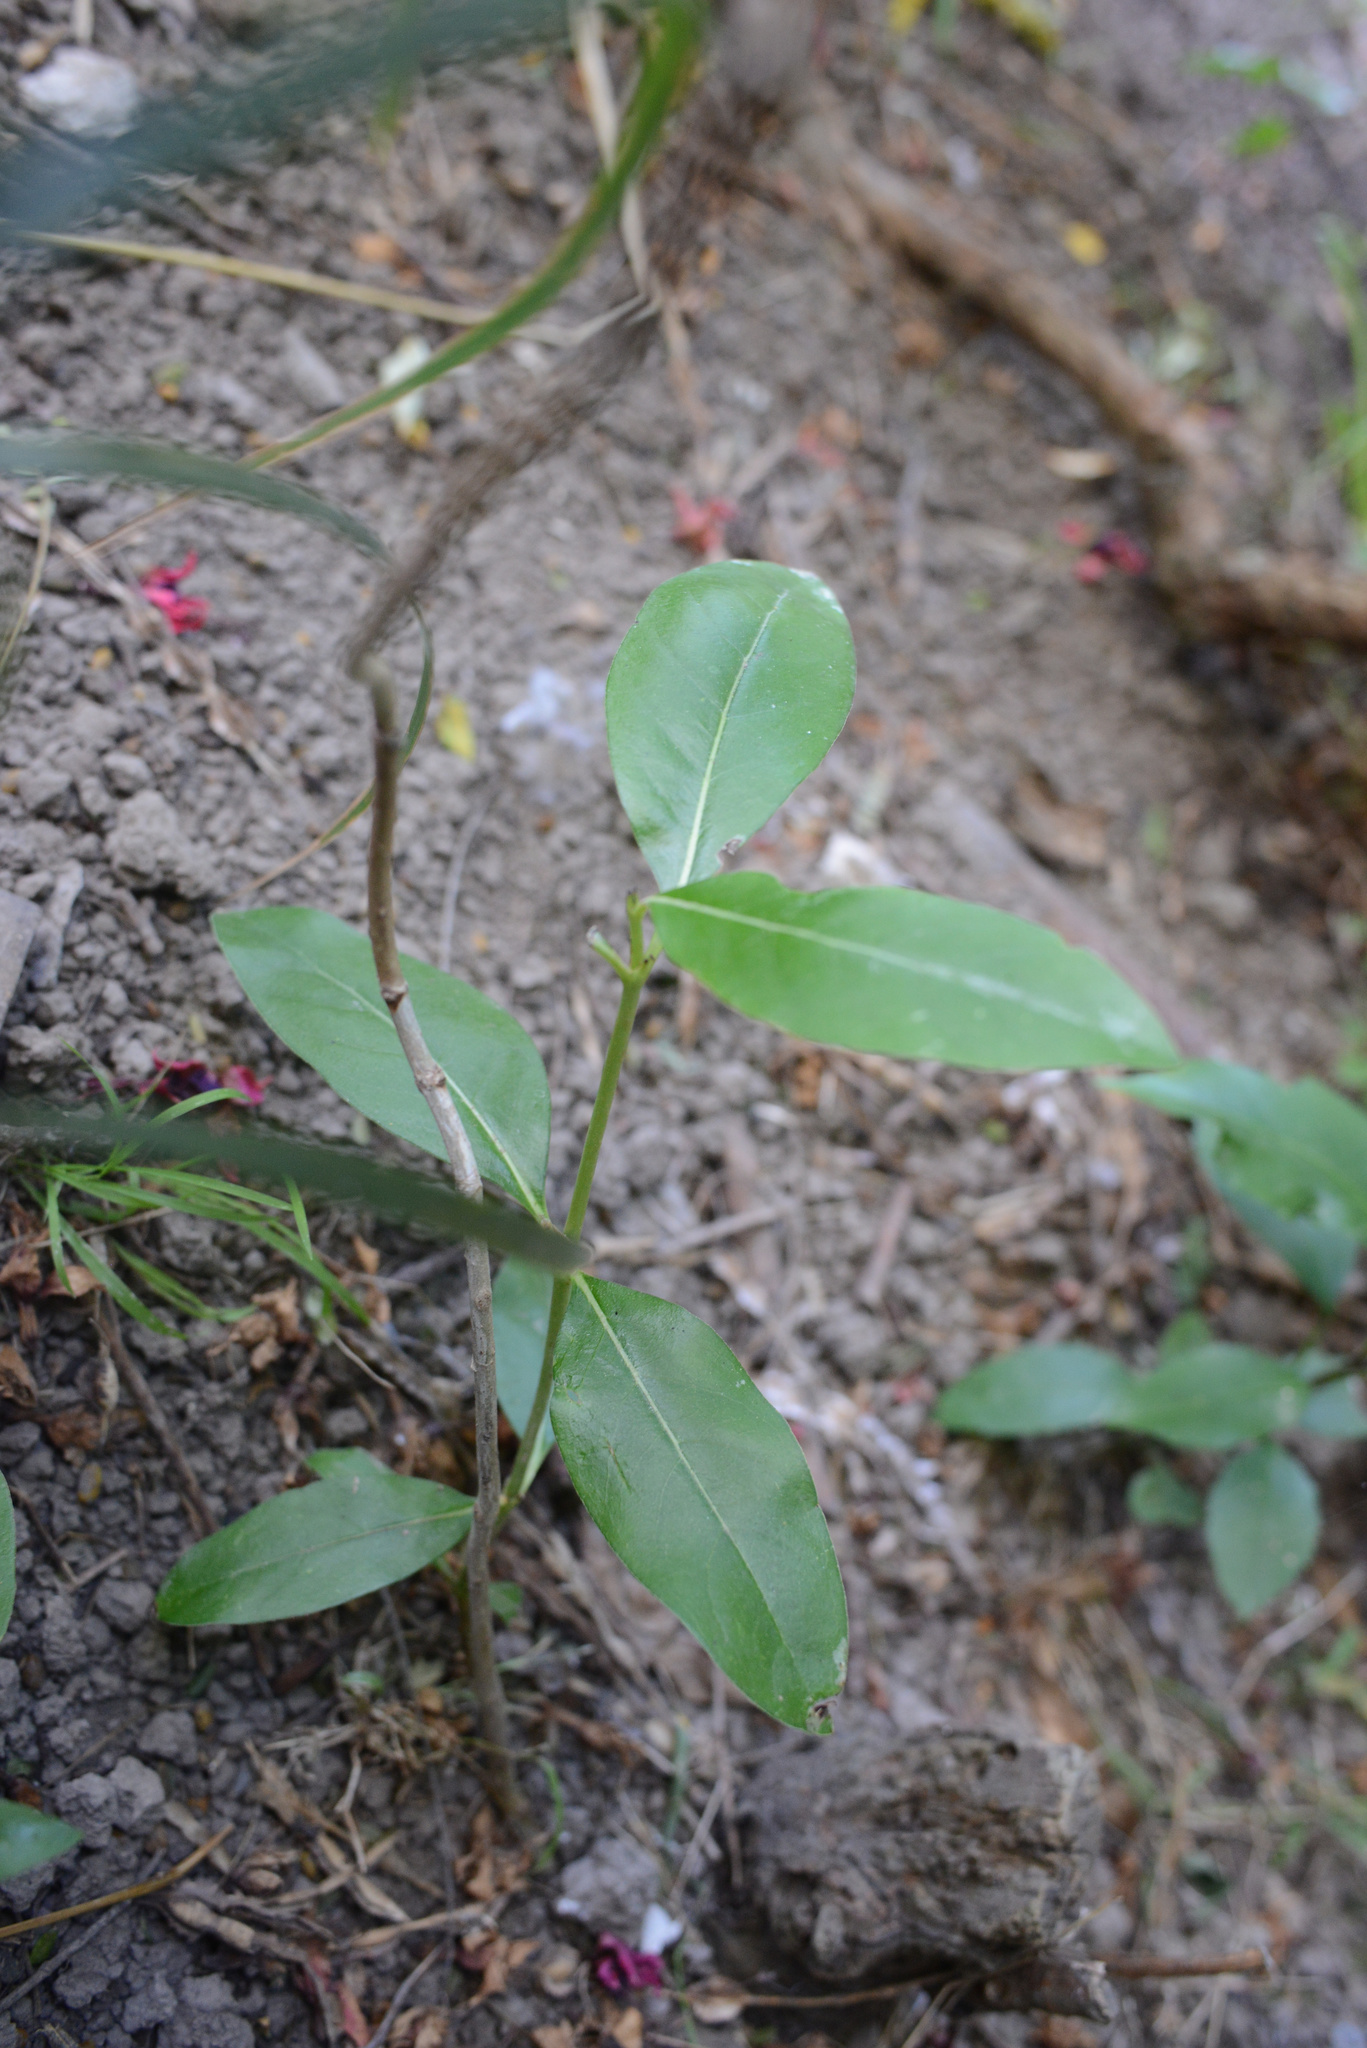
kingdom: Plantae
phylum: Tracheophyta
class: Magnoliopsida
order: Gentianales
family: Rubiaceae
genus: Coprosma
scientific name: Coprosma robusta
